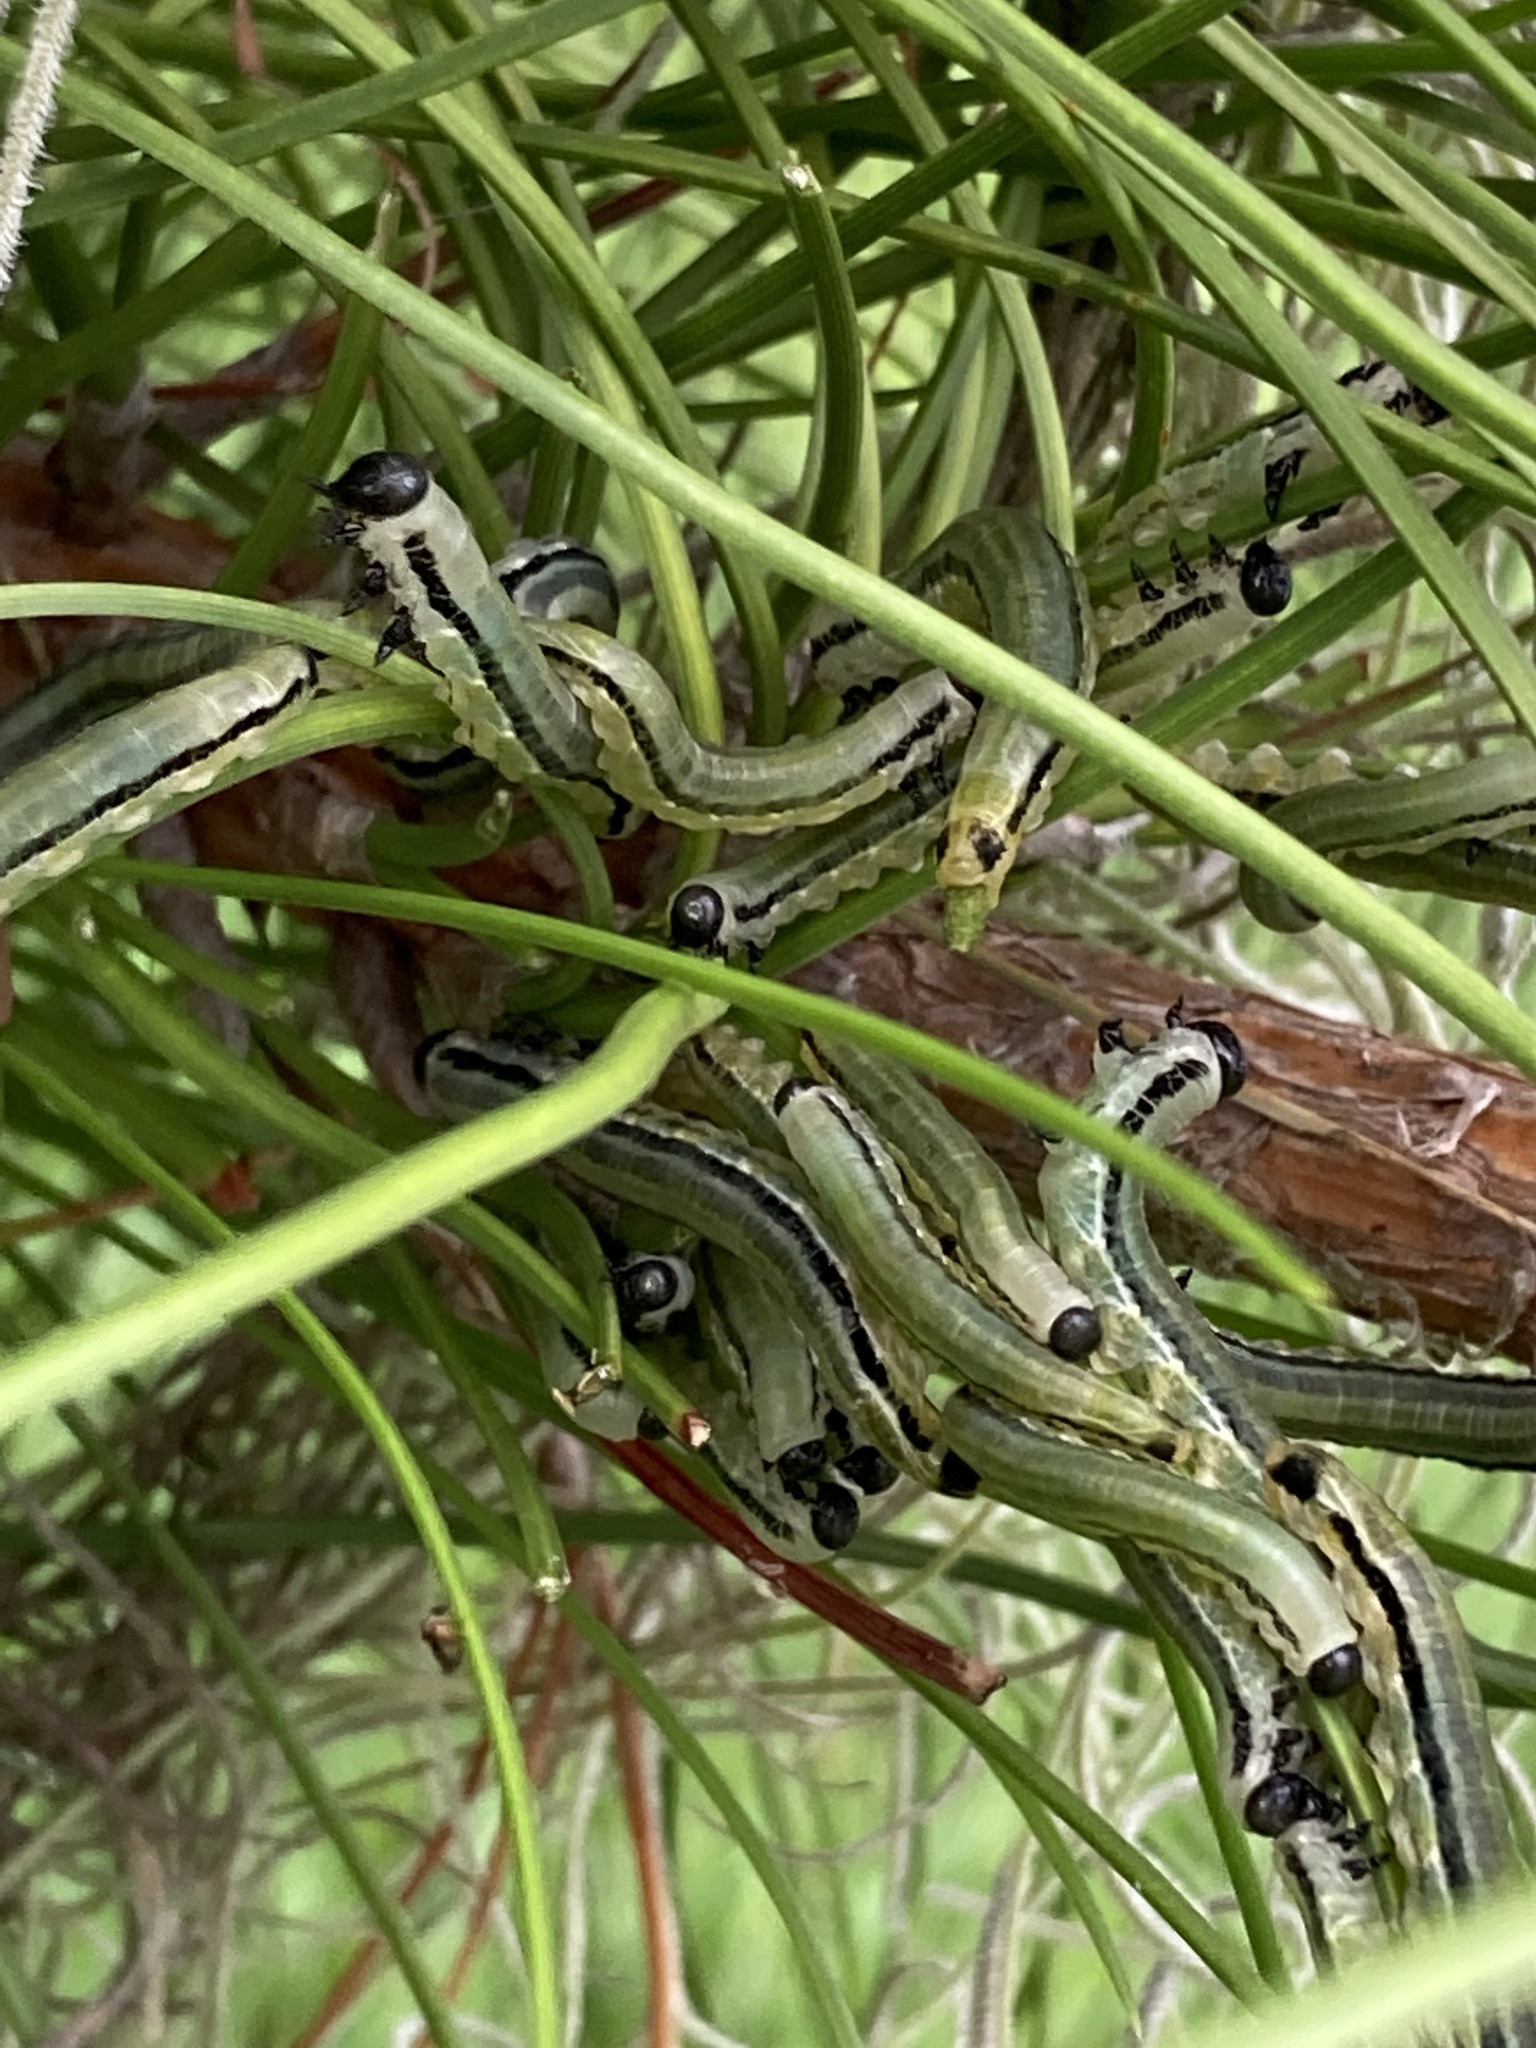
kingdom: Animalia
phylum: Arthropoda
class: Insecta
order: Hymenoptera
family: Diprionidae
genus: Neodiprion
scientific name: Neodiprion merkeli
